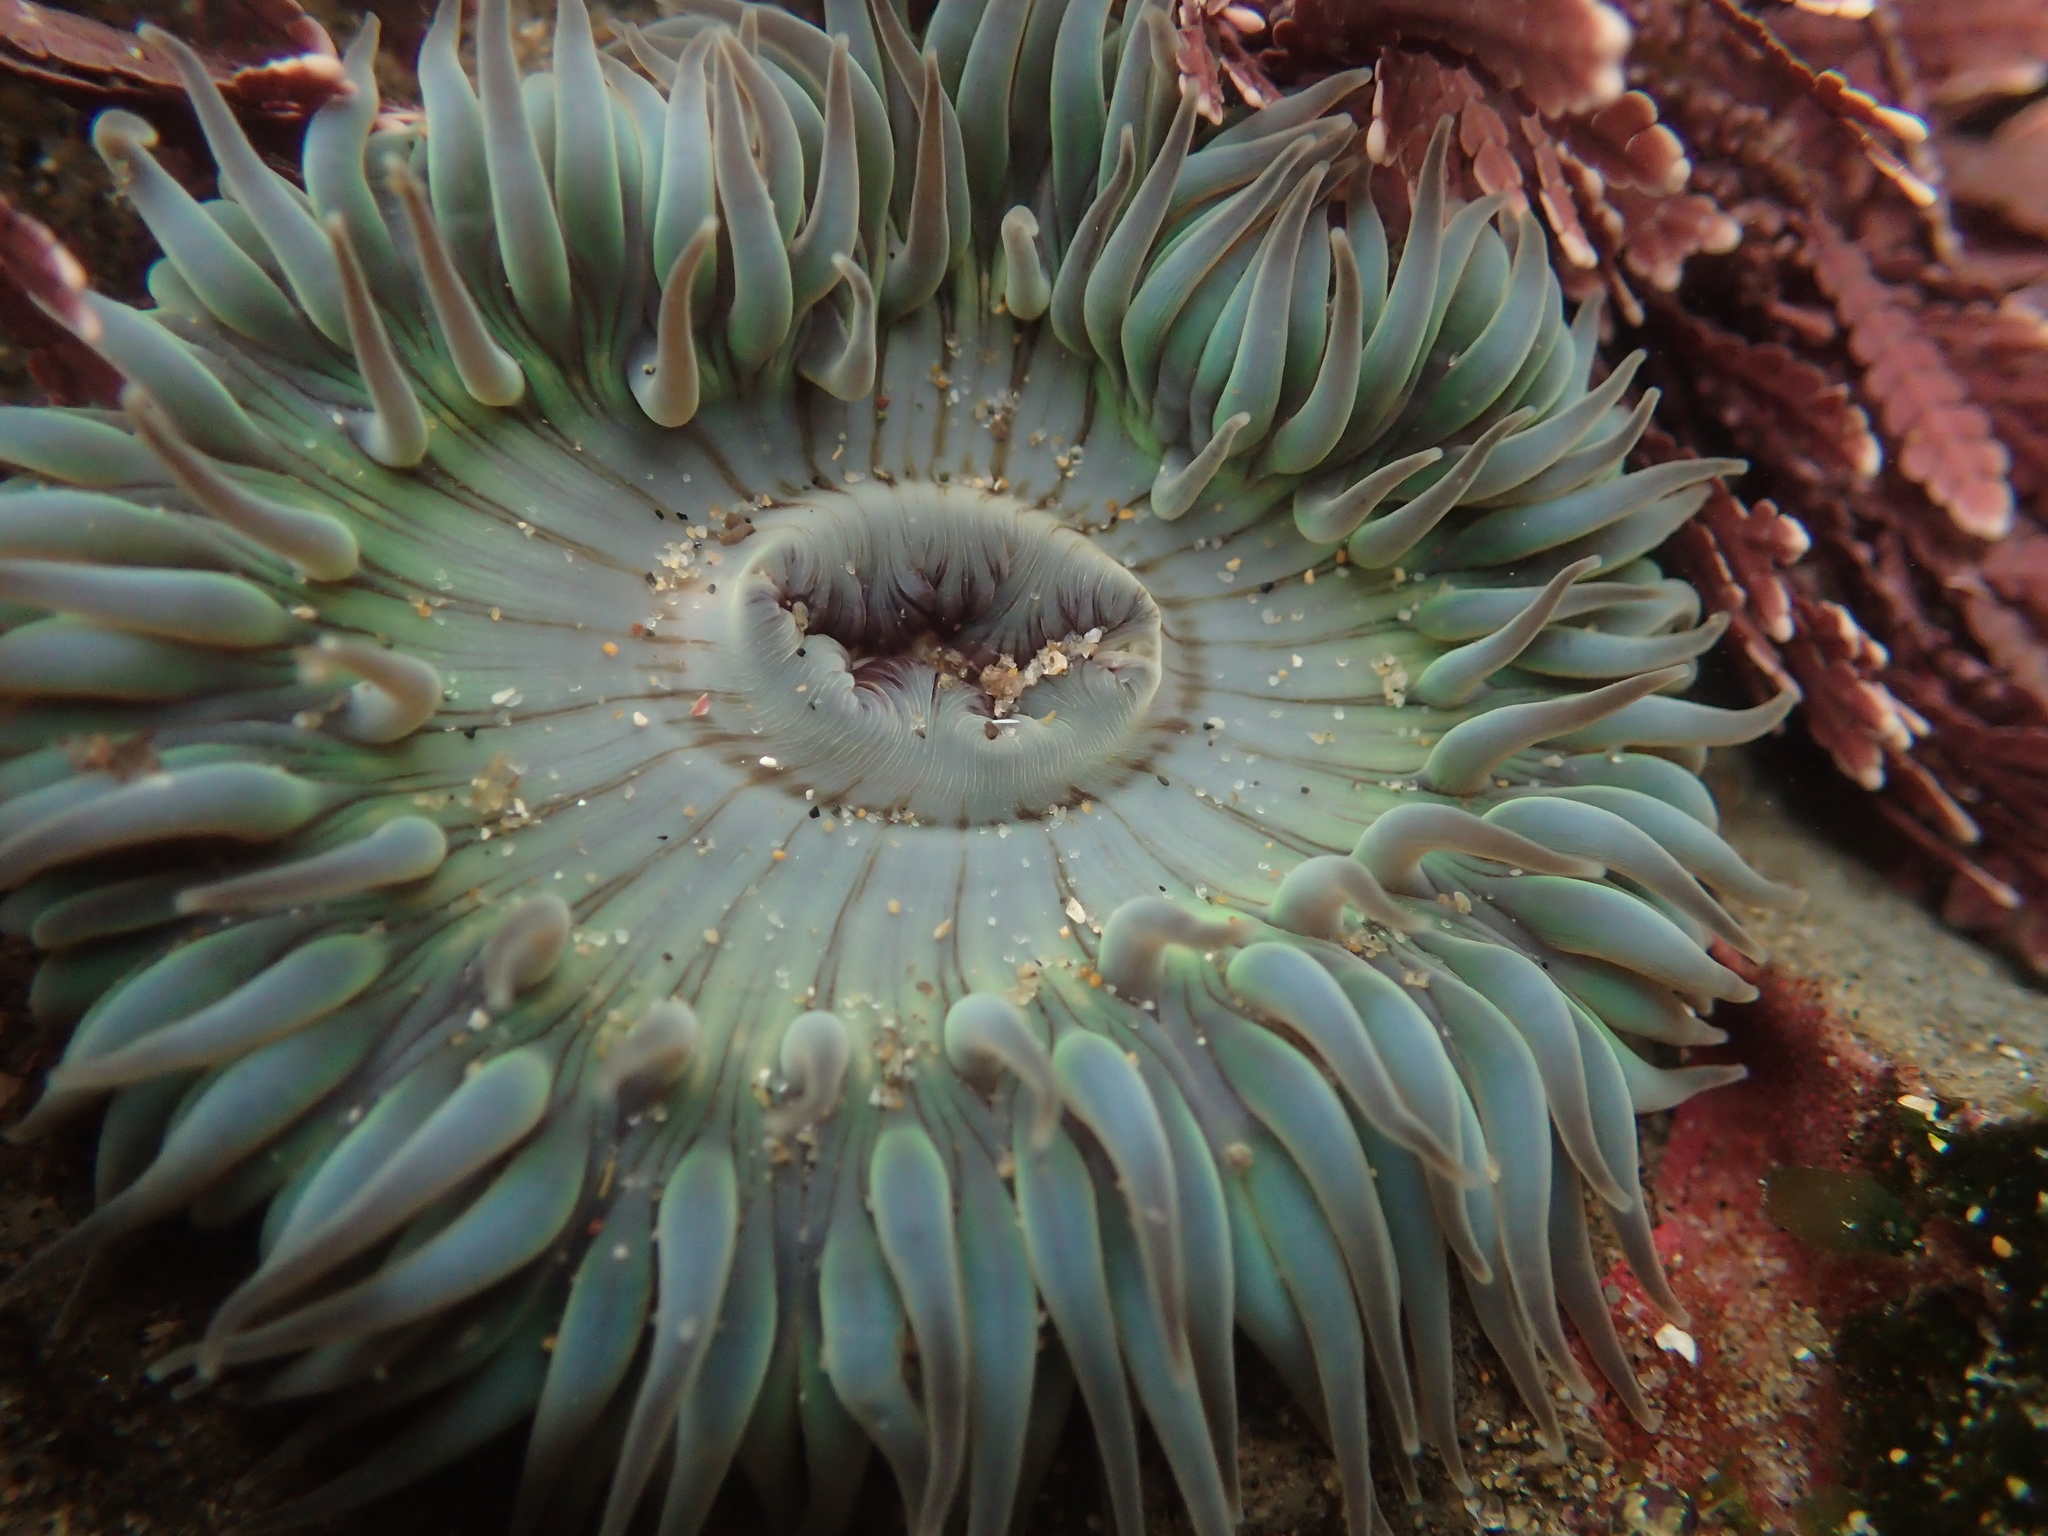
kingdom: Animalia
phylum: Cnidaria
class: Anthozoa
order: Actiniaria
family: Actiniidae
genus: Anthopleura
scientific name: Anthopleura sola
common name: Sun anemone
